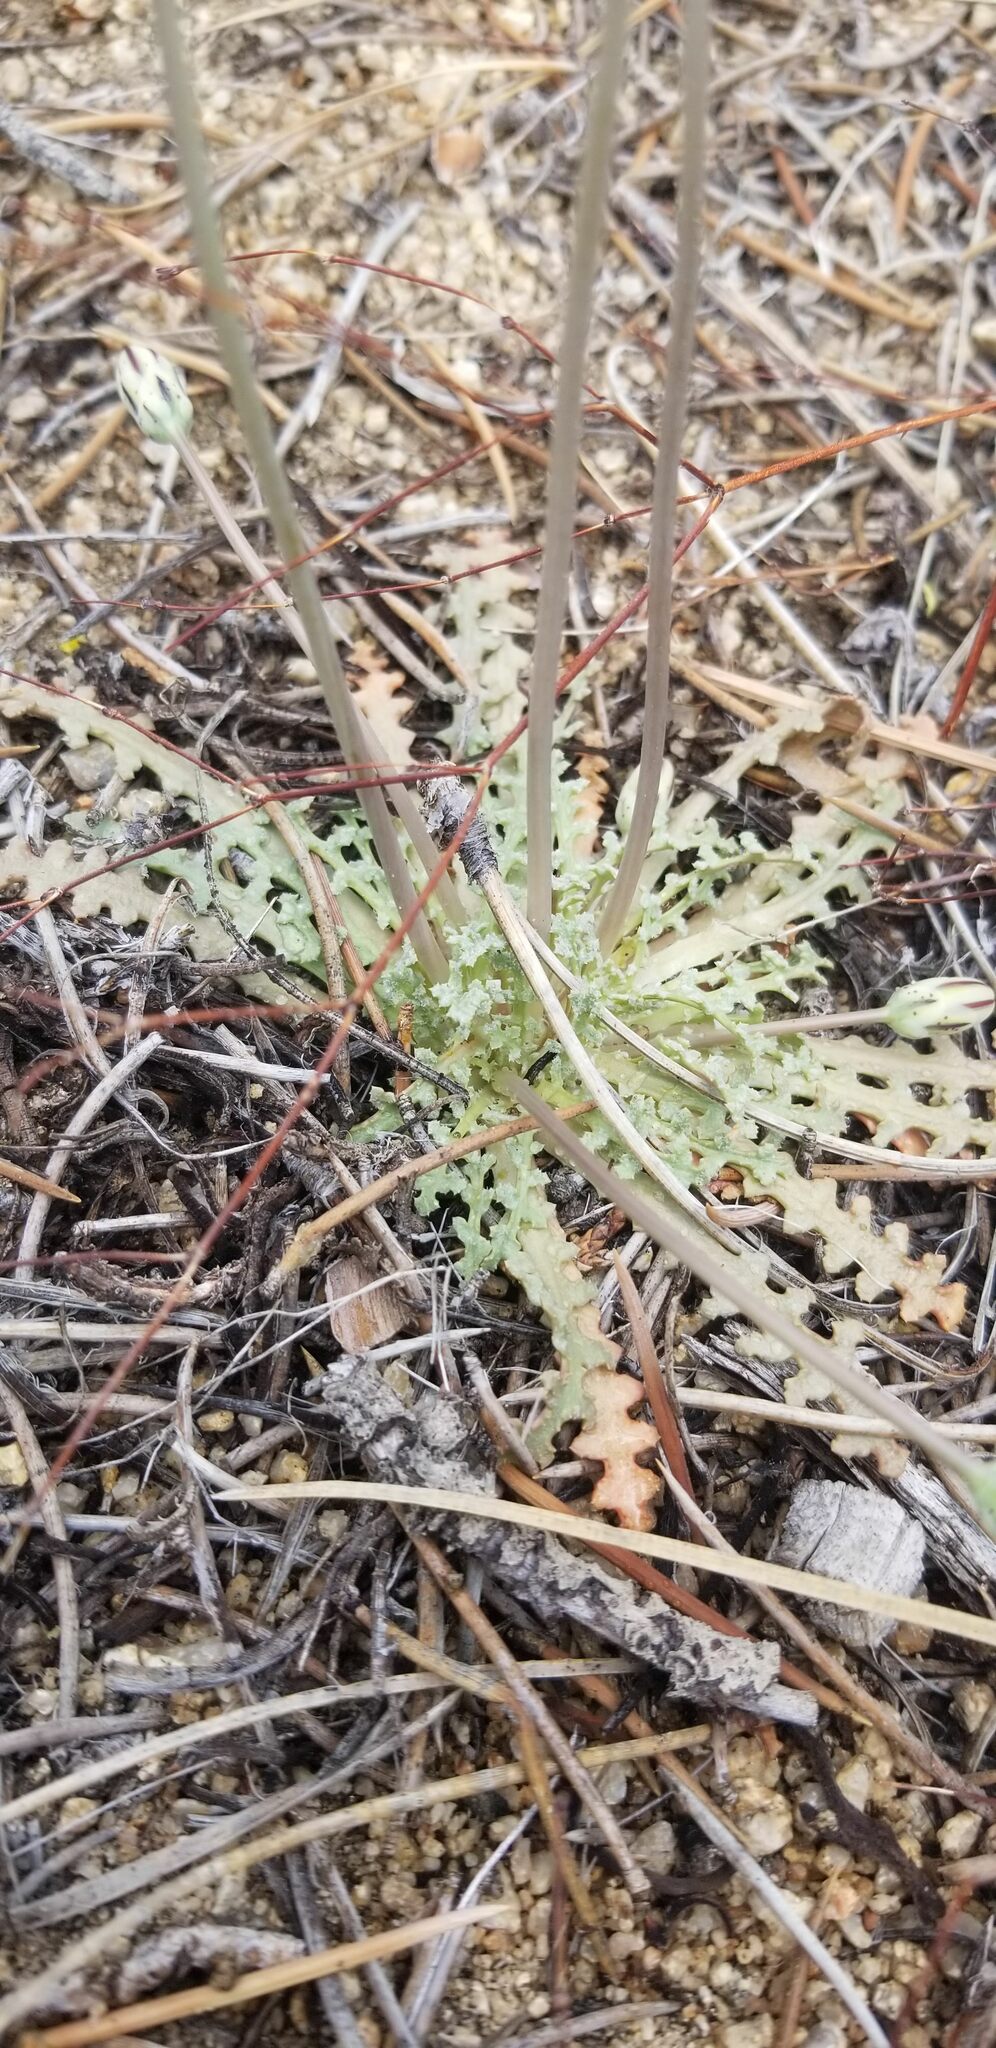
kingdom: Plantae
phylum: Tracheophyta
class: Magnoliopsida
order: Asterales
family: Asteraceae
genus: Anisocoma
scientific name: Anisocoma acaulis
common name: Scalebud
